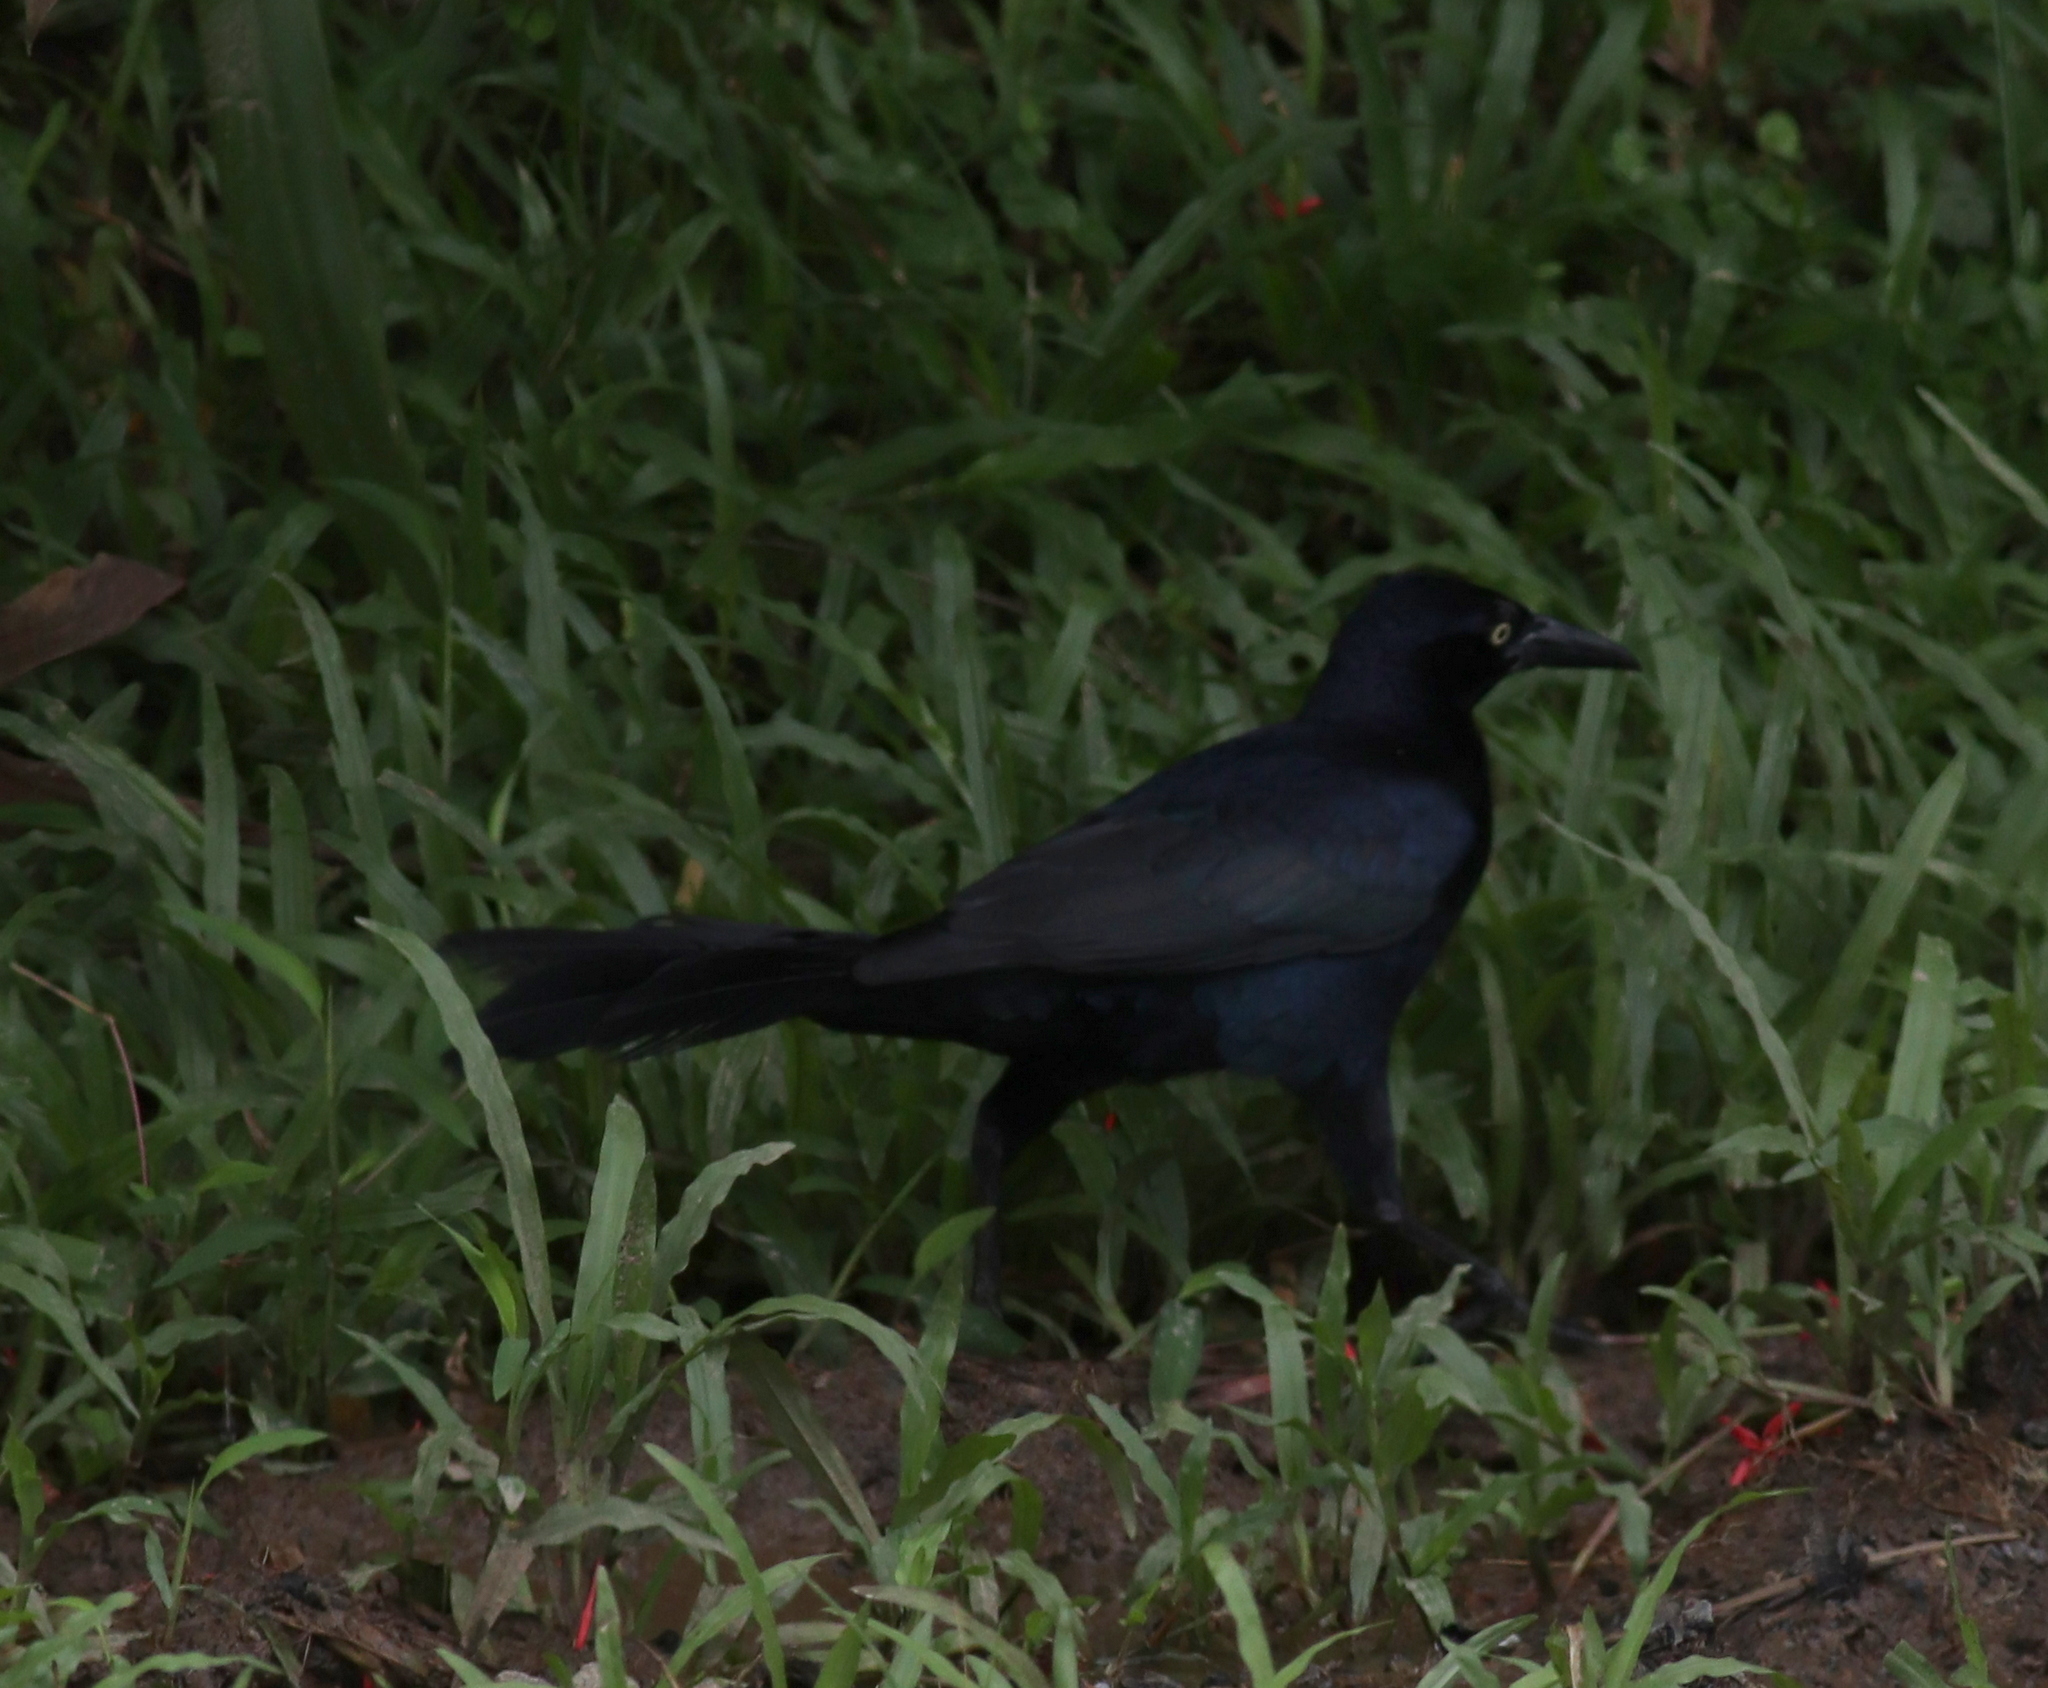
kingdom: Animalia
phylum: Chordata
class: Aves
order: Passeriformes
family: Icteridae
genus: Quiscalus
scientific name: Quiscalus mexicanus
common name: Great-tailed grackle
